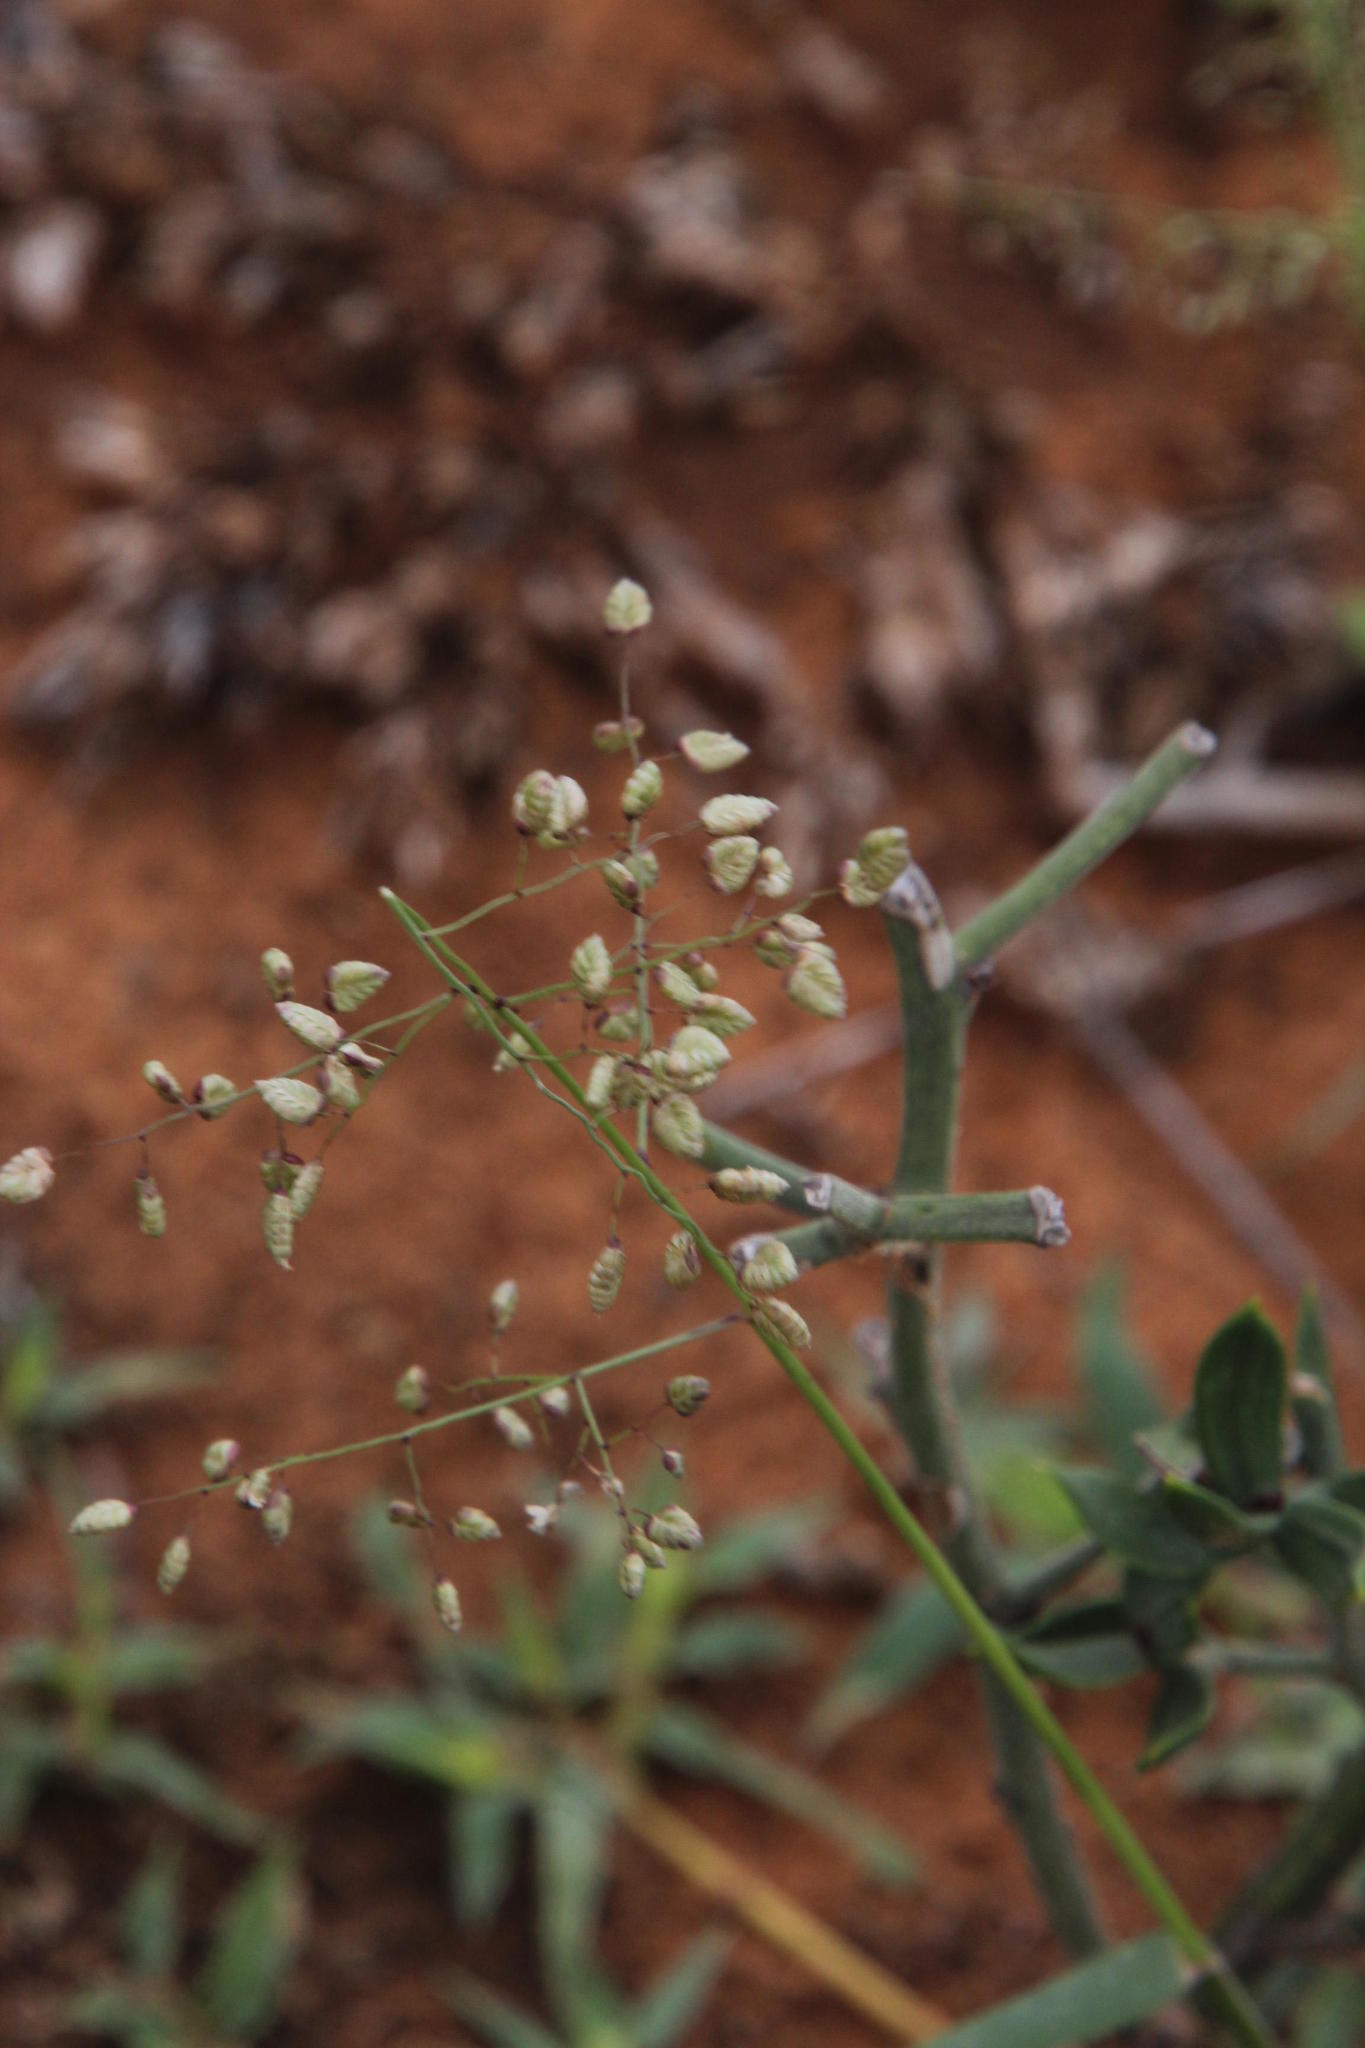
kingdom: Plantae
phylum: Tracheophyta
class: Liliopsida
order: Poales
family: Poaceae
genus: Eragrostis
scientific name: Eragrostis obtusa
